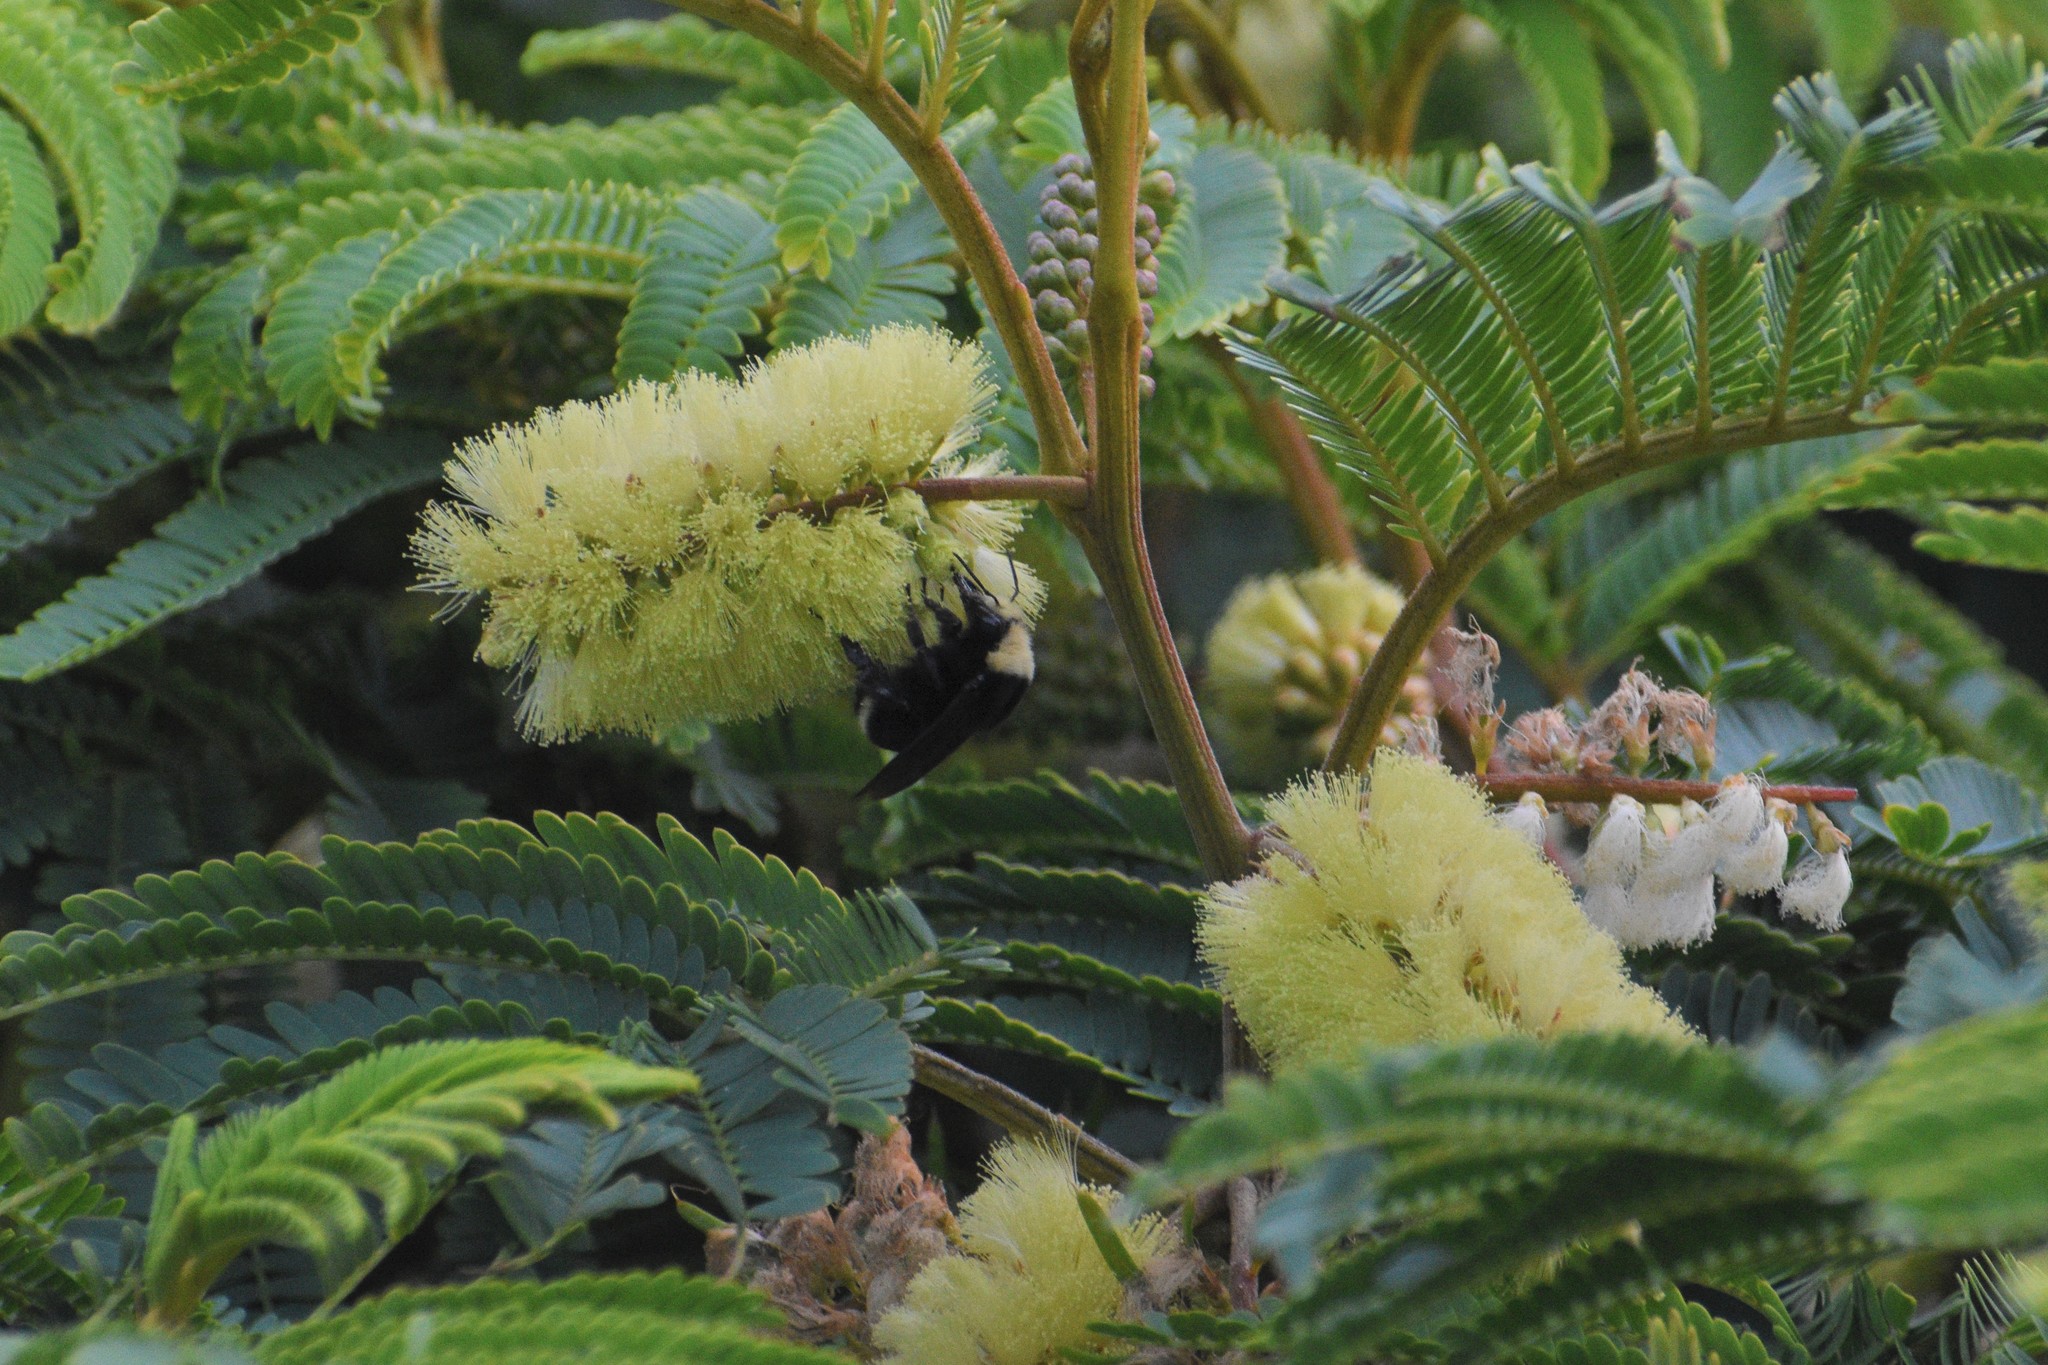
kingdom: Animalia
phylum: Arthropoda
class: Insecta
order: Hymenoptera
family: Apidae
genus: Bombus
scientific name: Bombus vosnesenskii
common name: Vosnesensky bumble bee
